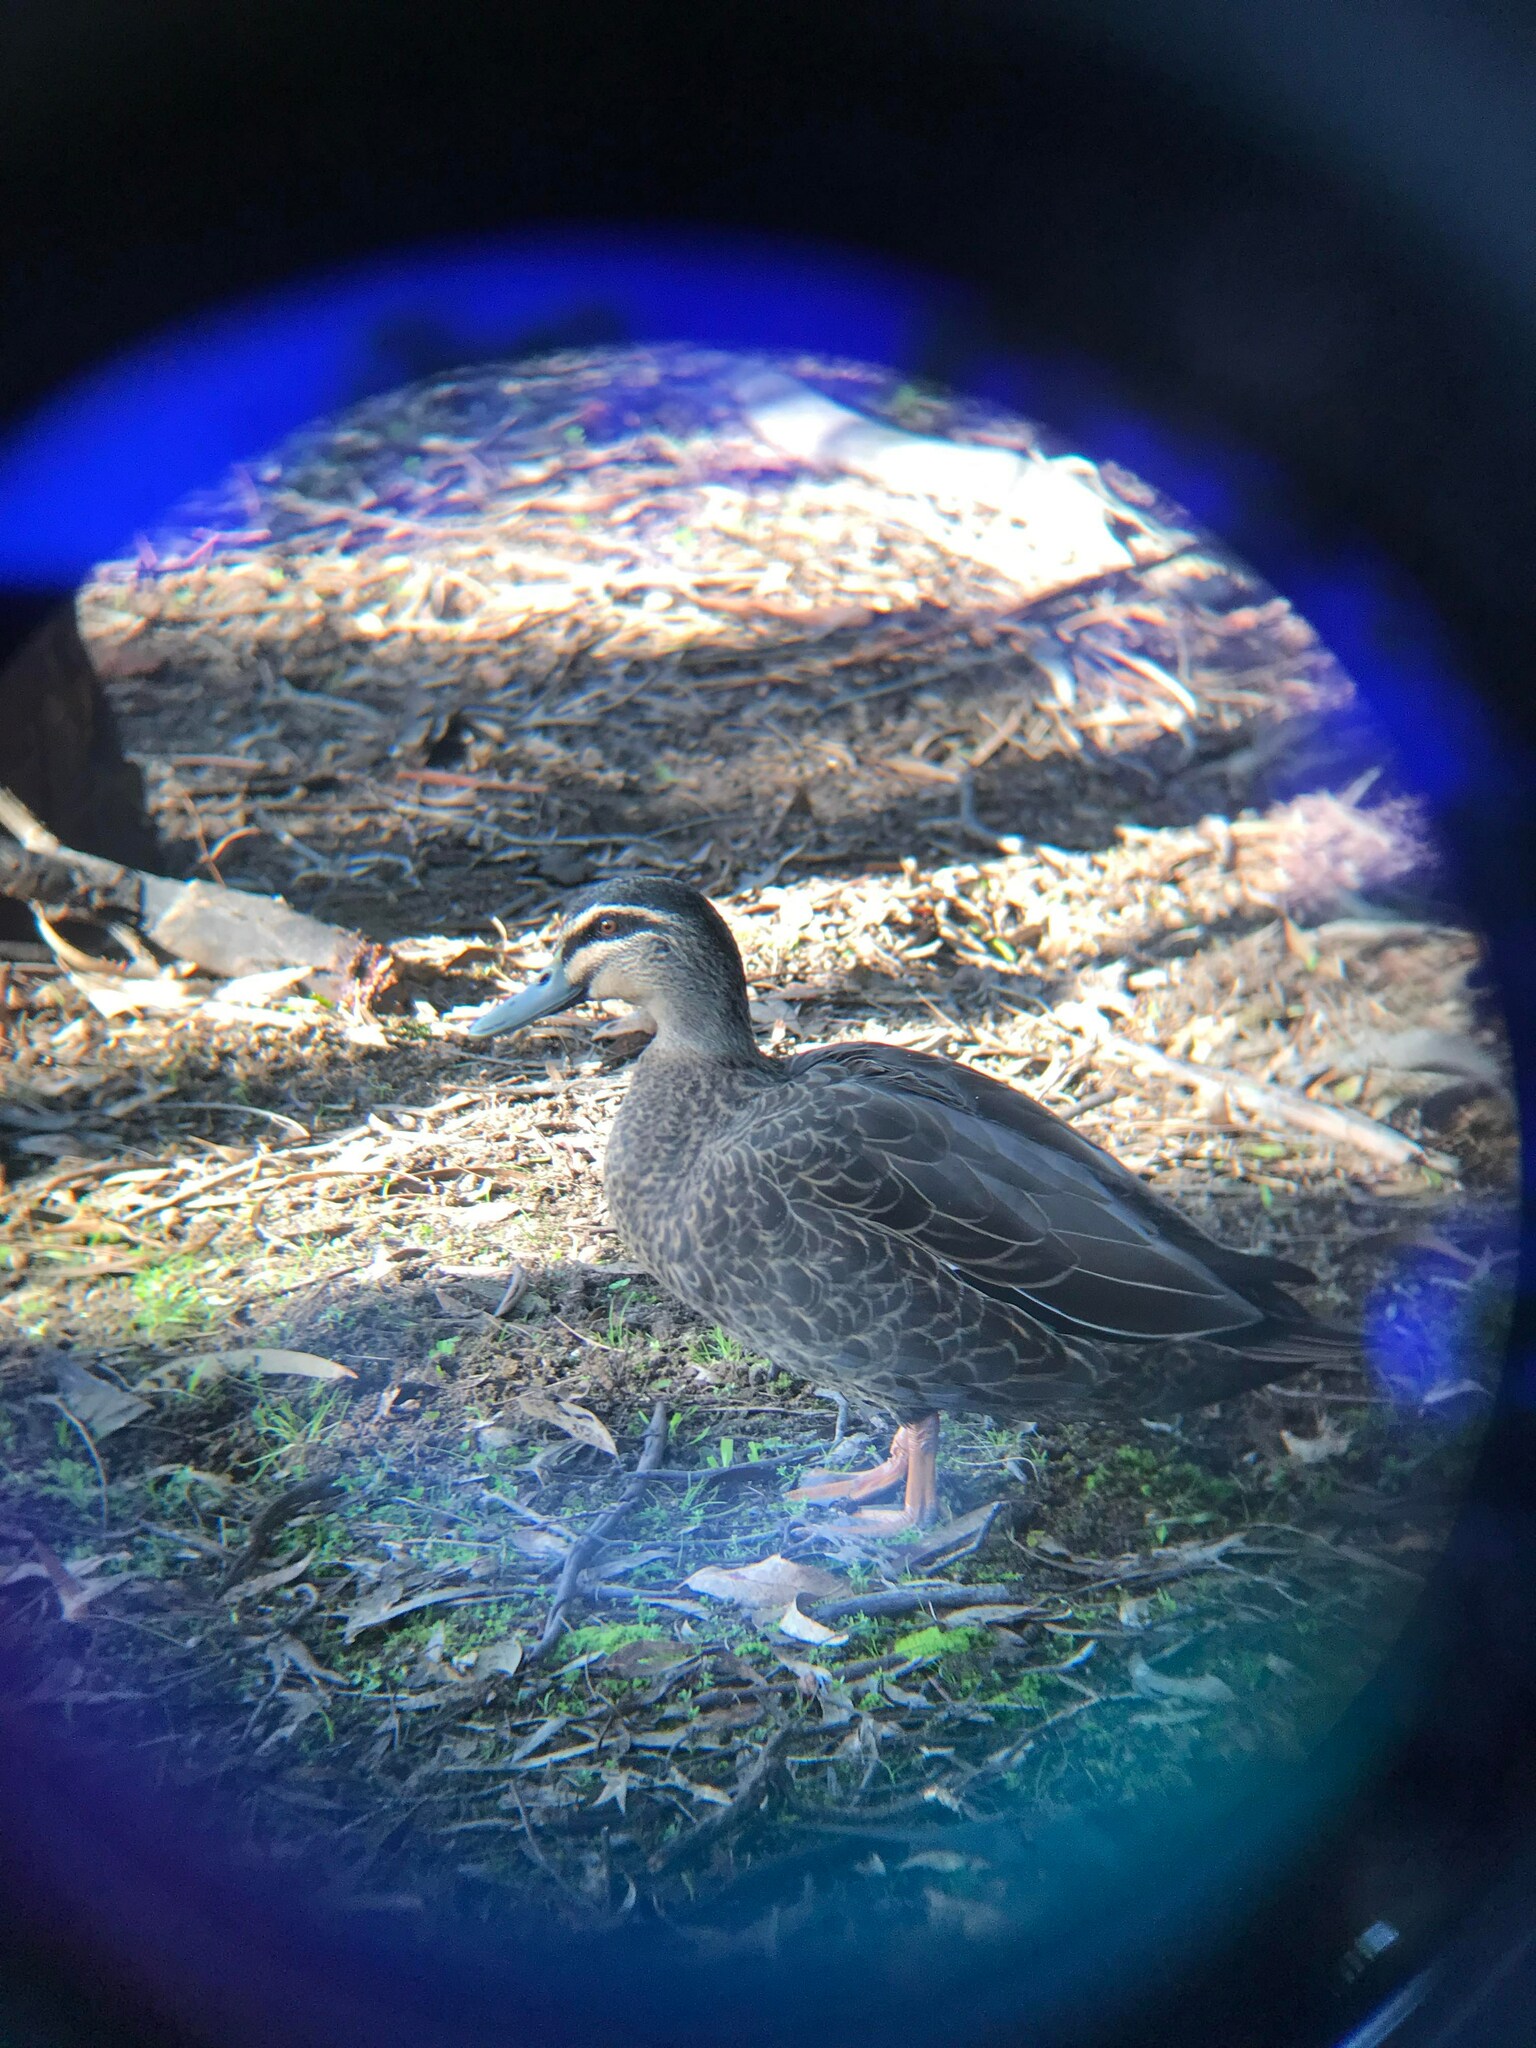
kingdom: Animalia
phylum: Chordata
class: Aves
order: Anseriformes
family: Anatidae
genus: Anas
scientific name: Anas
